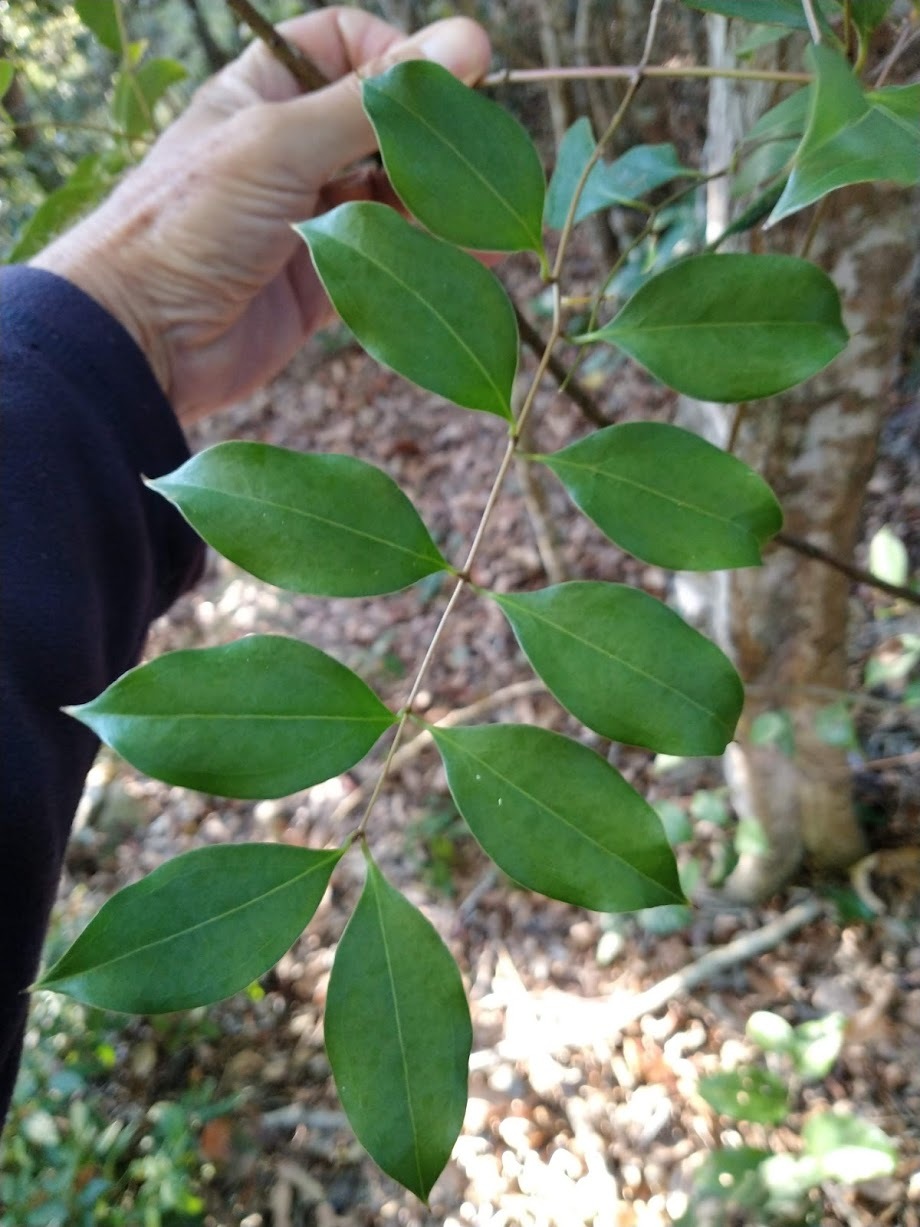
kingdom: Plantae
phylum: Tracheophyta
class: Liliopsida
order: Liliales
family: Ripogonaceae
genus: Ripogonum
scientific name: Ripogonum brevifolium
